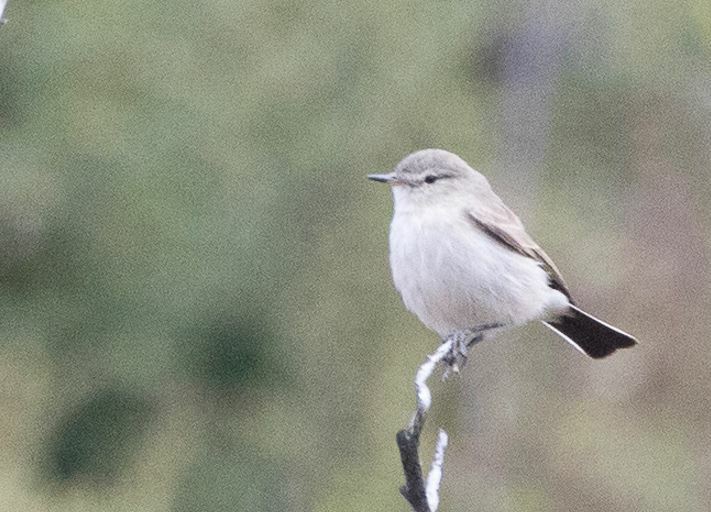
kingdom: Animalia
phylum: Chordata
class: Aves
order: Passeriformes
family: Tyrannidae
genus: Muscisaxicola
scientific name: Muscisaxicola maculirostris
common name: Spot-billed ground tyrant
